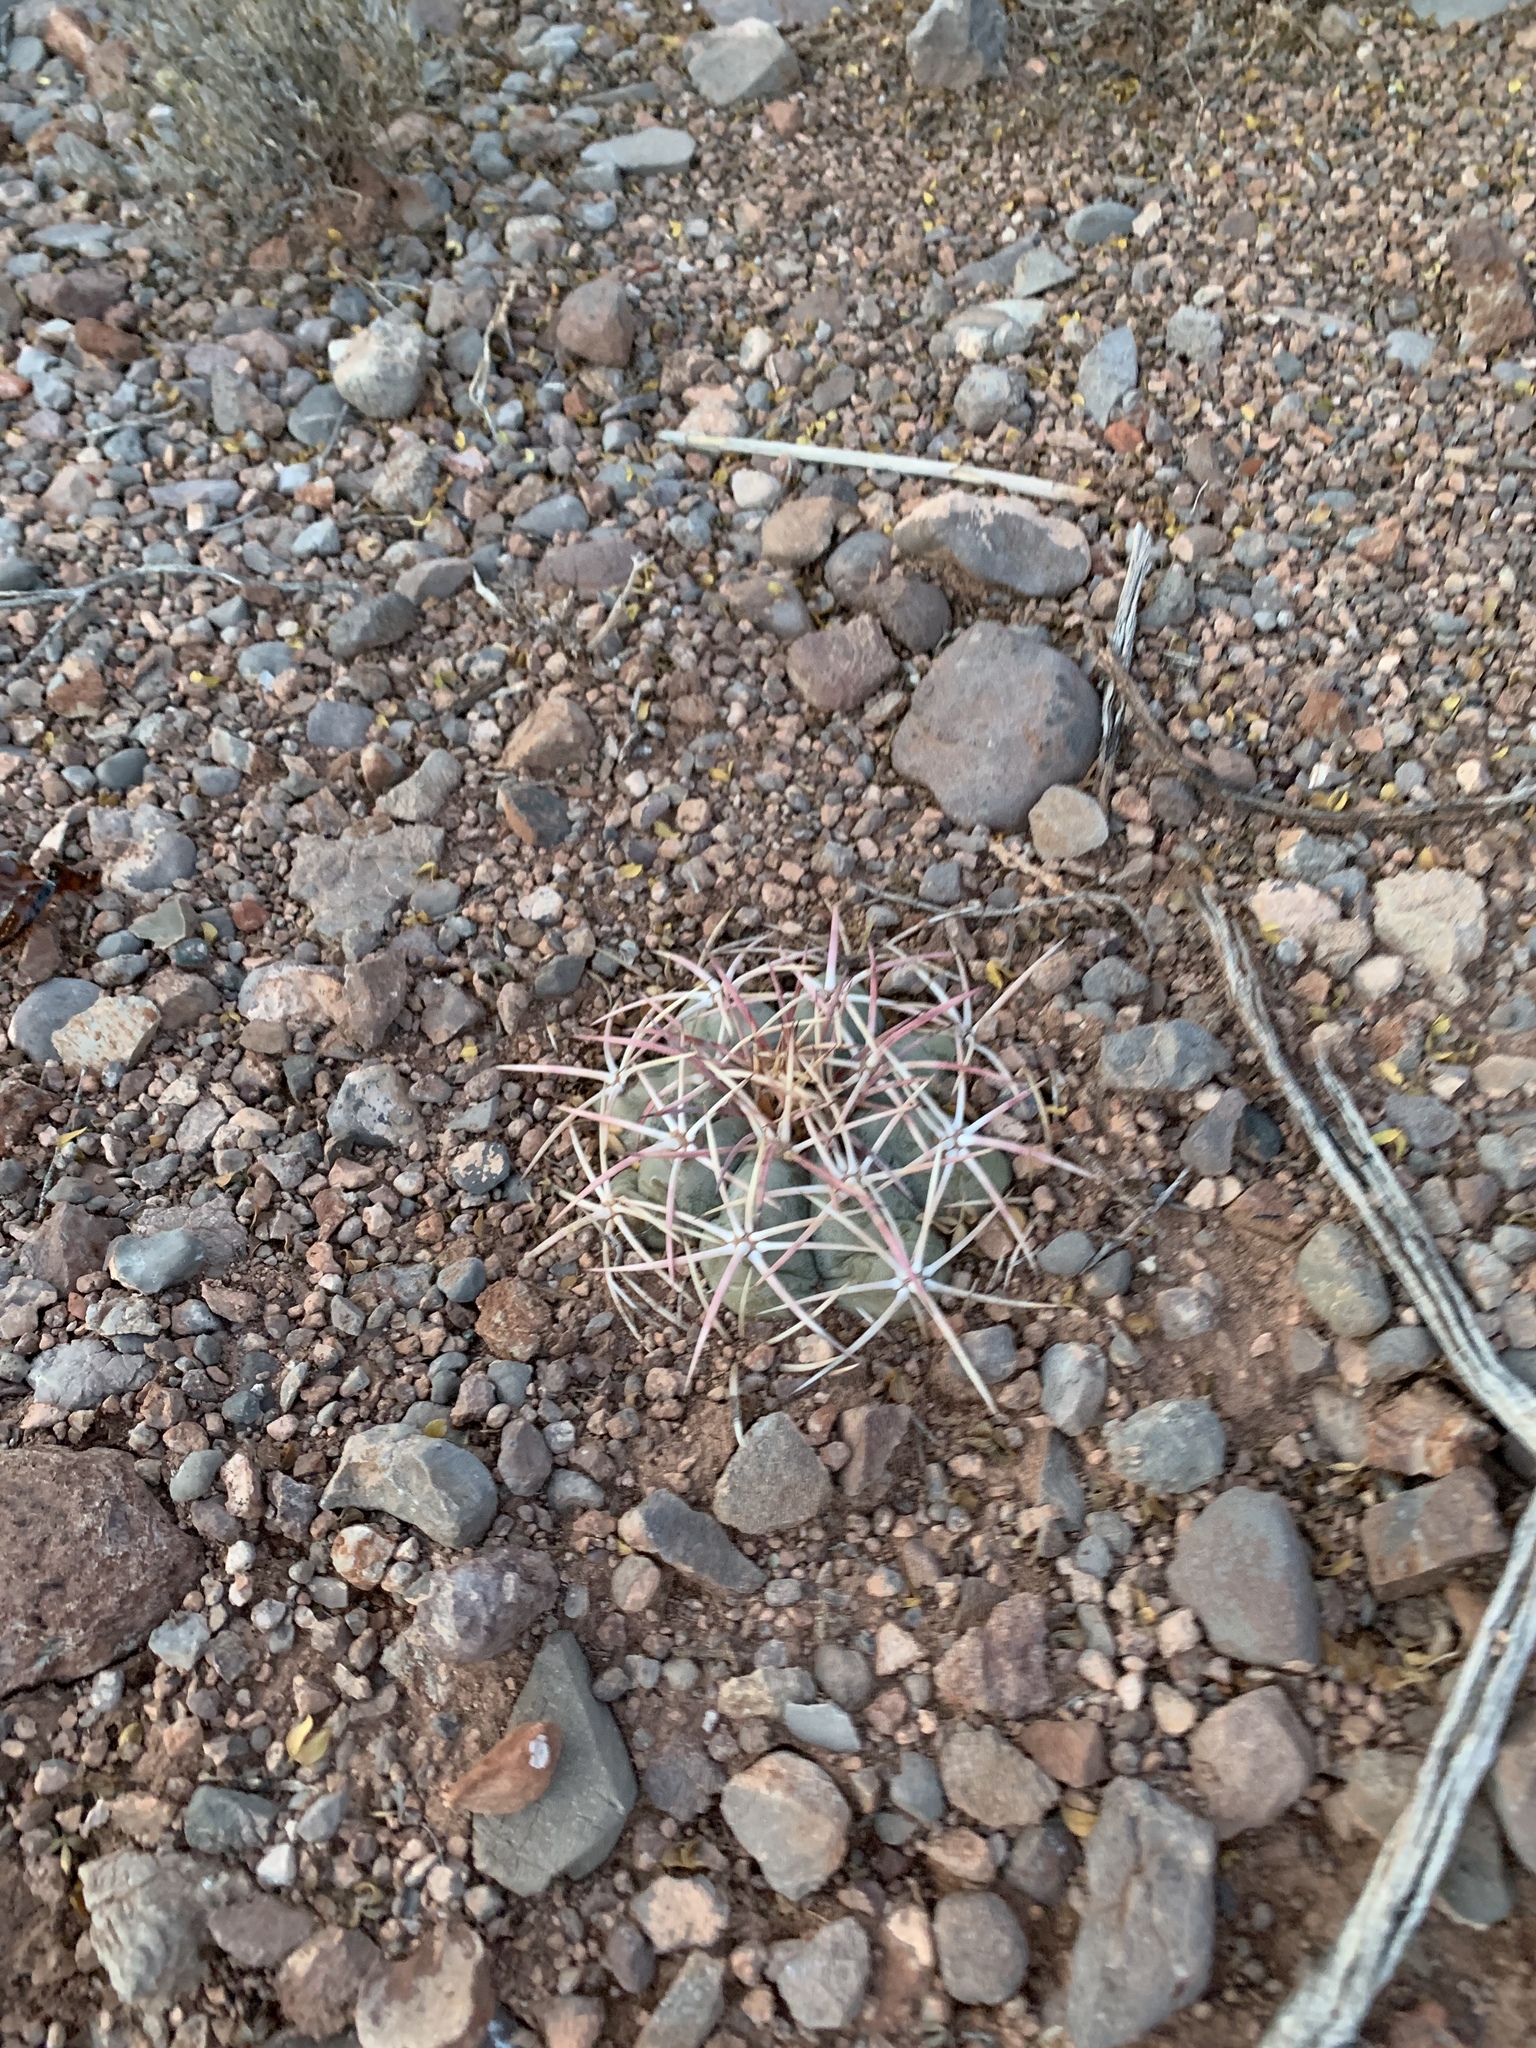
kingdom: Plantae
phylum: Tracheophyta
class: Magnoliopsida
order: Caryophyllales
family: Cactaceae
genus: Echinocactus
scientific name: Echinocactus horizonthalonius
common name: Devilshead
